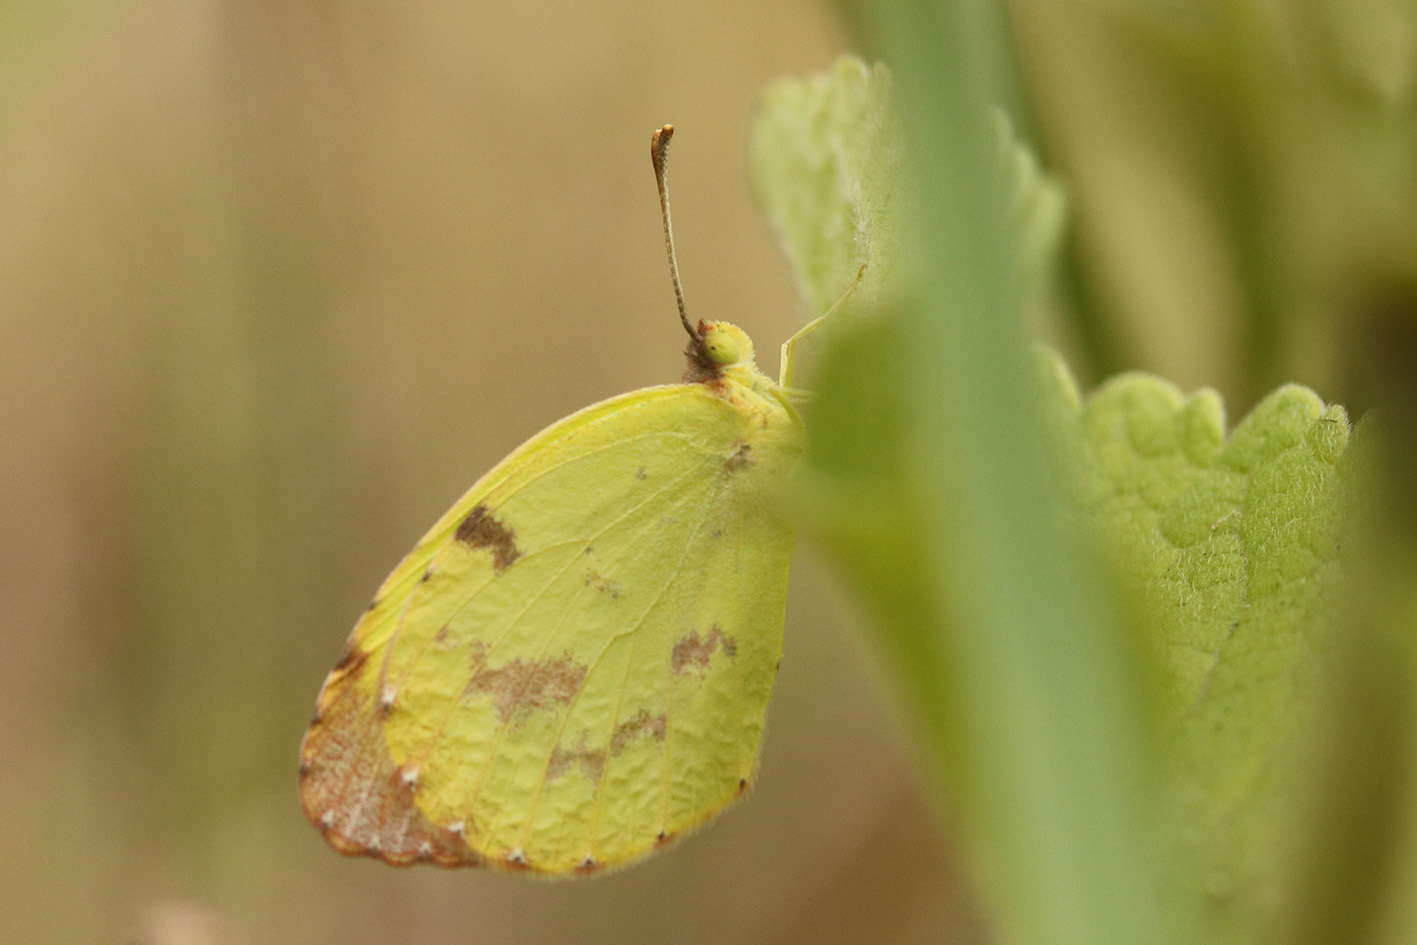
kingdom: Animalia
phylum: Arthropoda
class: Insecta
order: Lepidoptera
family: Pieridae
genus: Teriocolias
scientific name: Teriocolias
